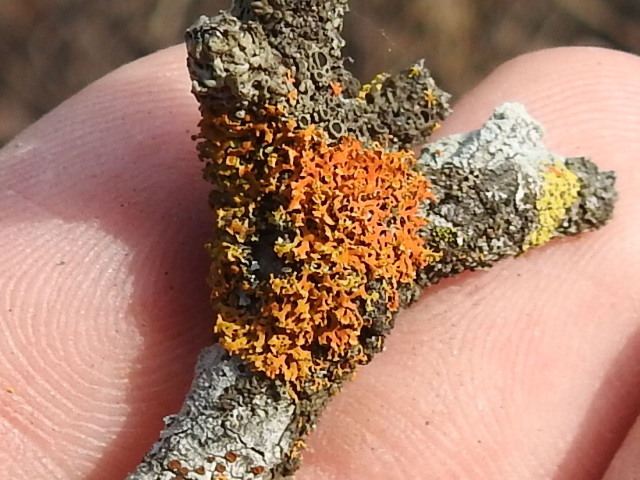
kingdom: Fungi
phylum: Ascomycota
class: Lecanoromycetes
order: Teloschistales
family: Teloschistaceae
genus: Oxneria
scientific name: Oxneria fallax
